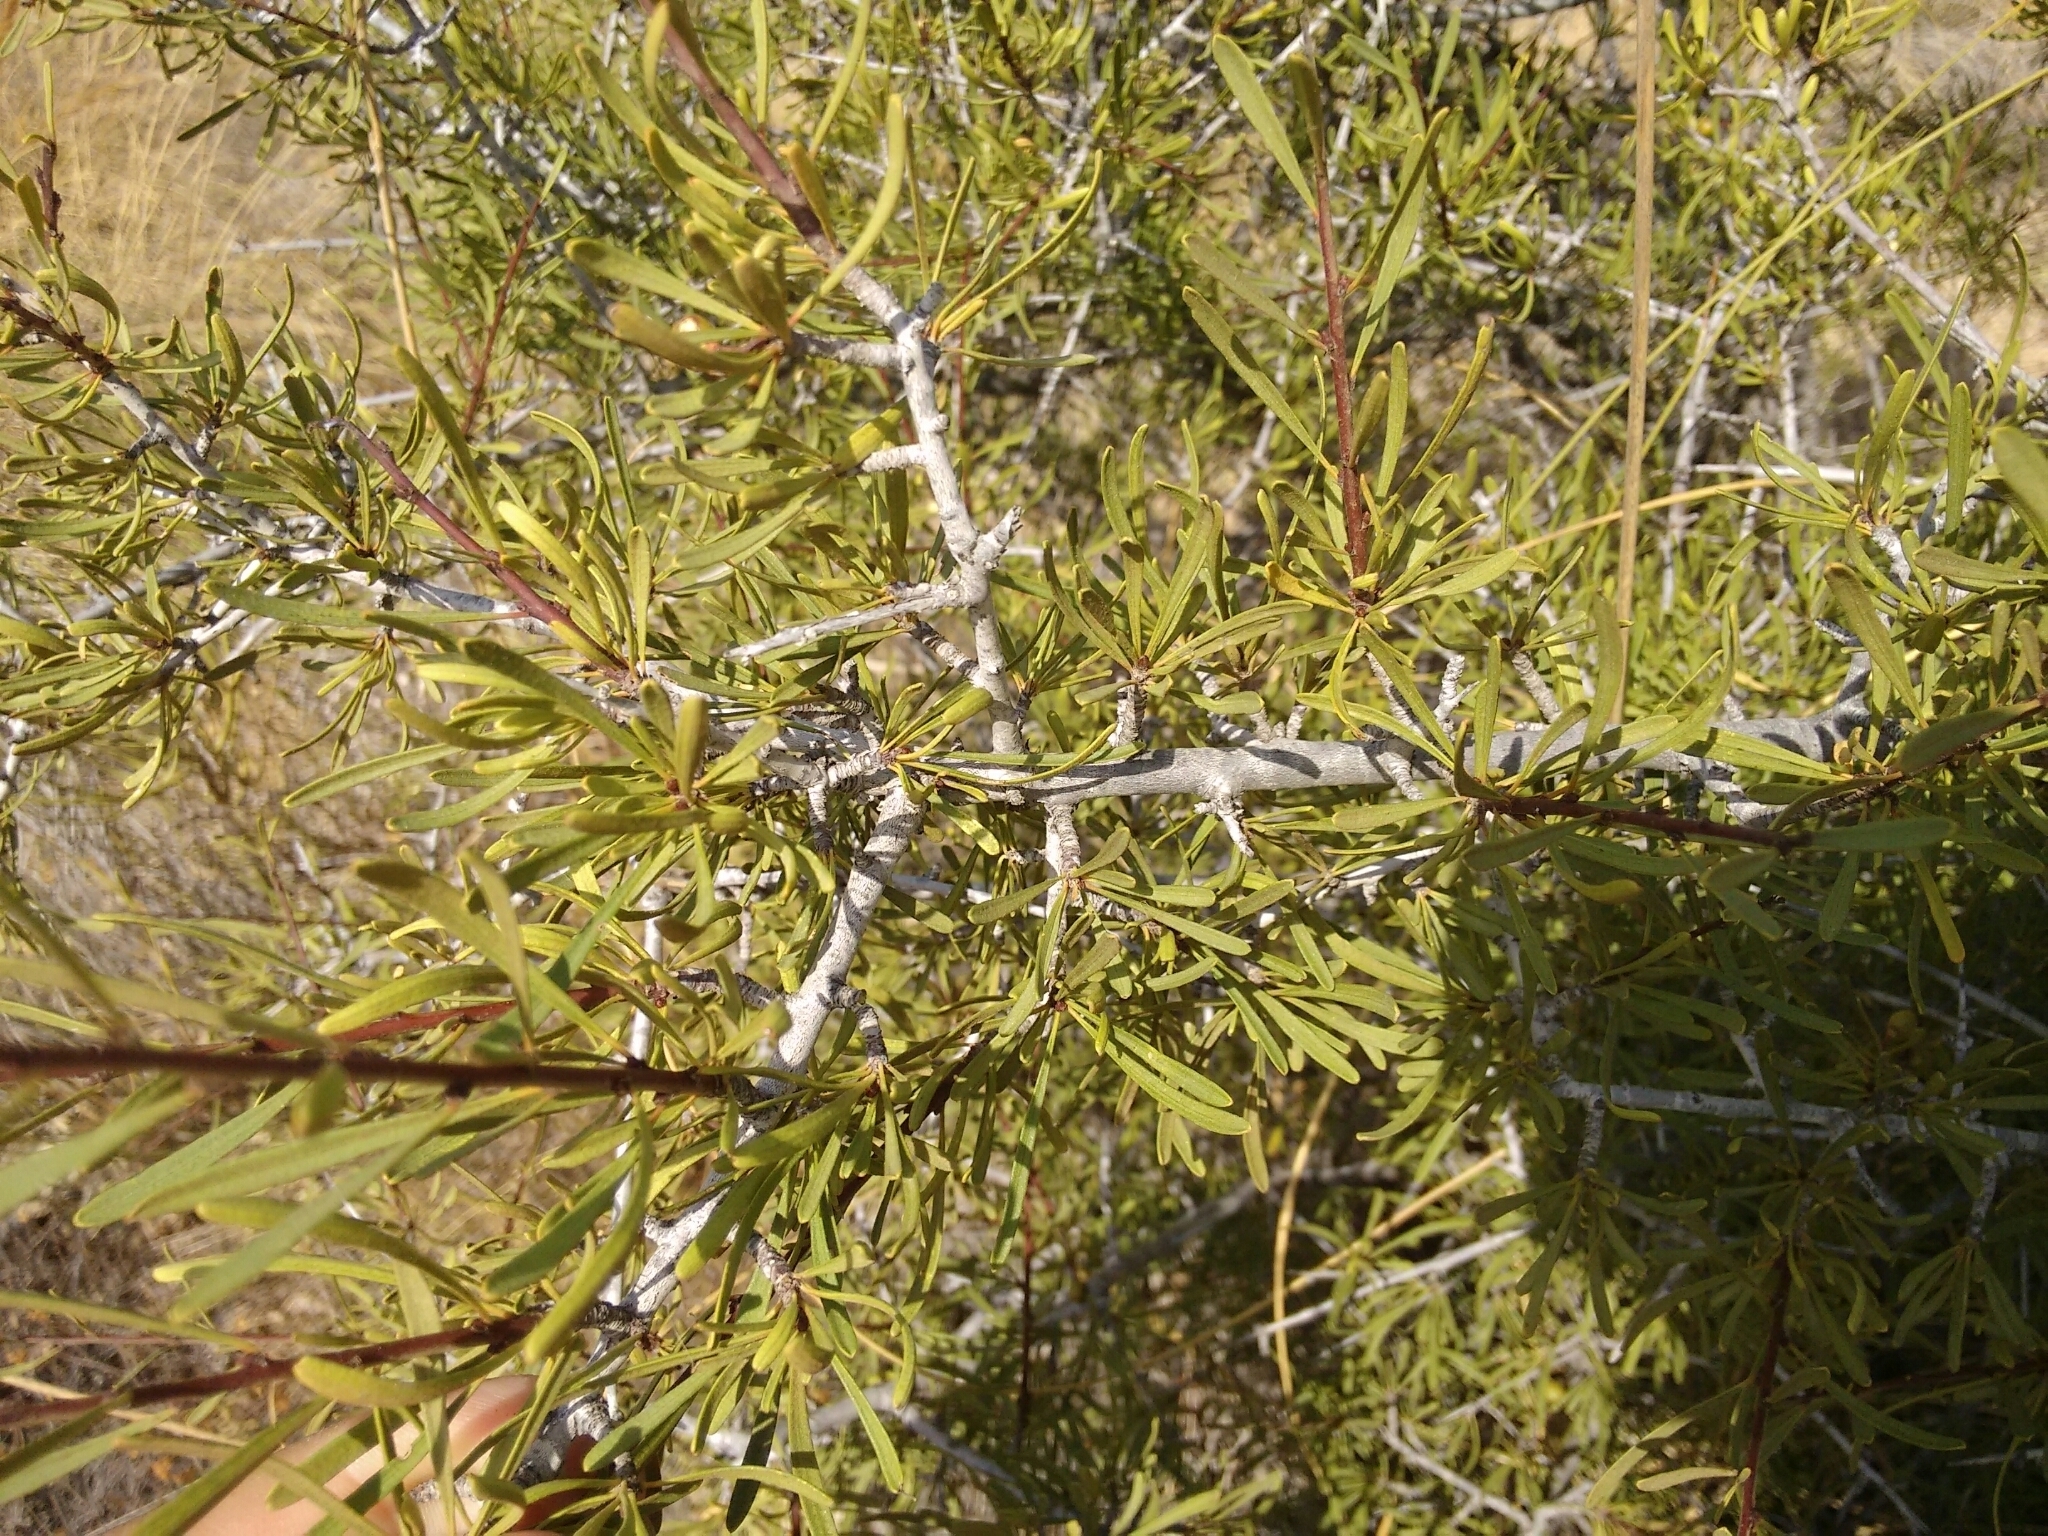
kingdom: Plantae
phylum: Tracheophyta
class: Magnoliopsida
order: Rosales
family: Rhamnaceae
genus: Rhamnus
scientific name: Rhamnus lycioides
